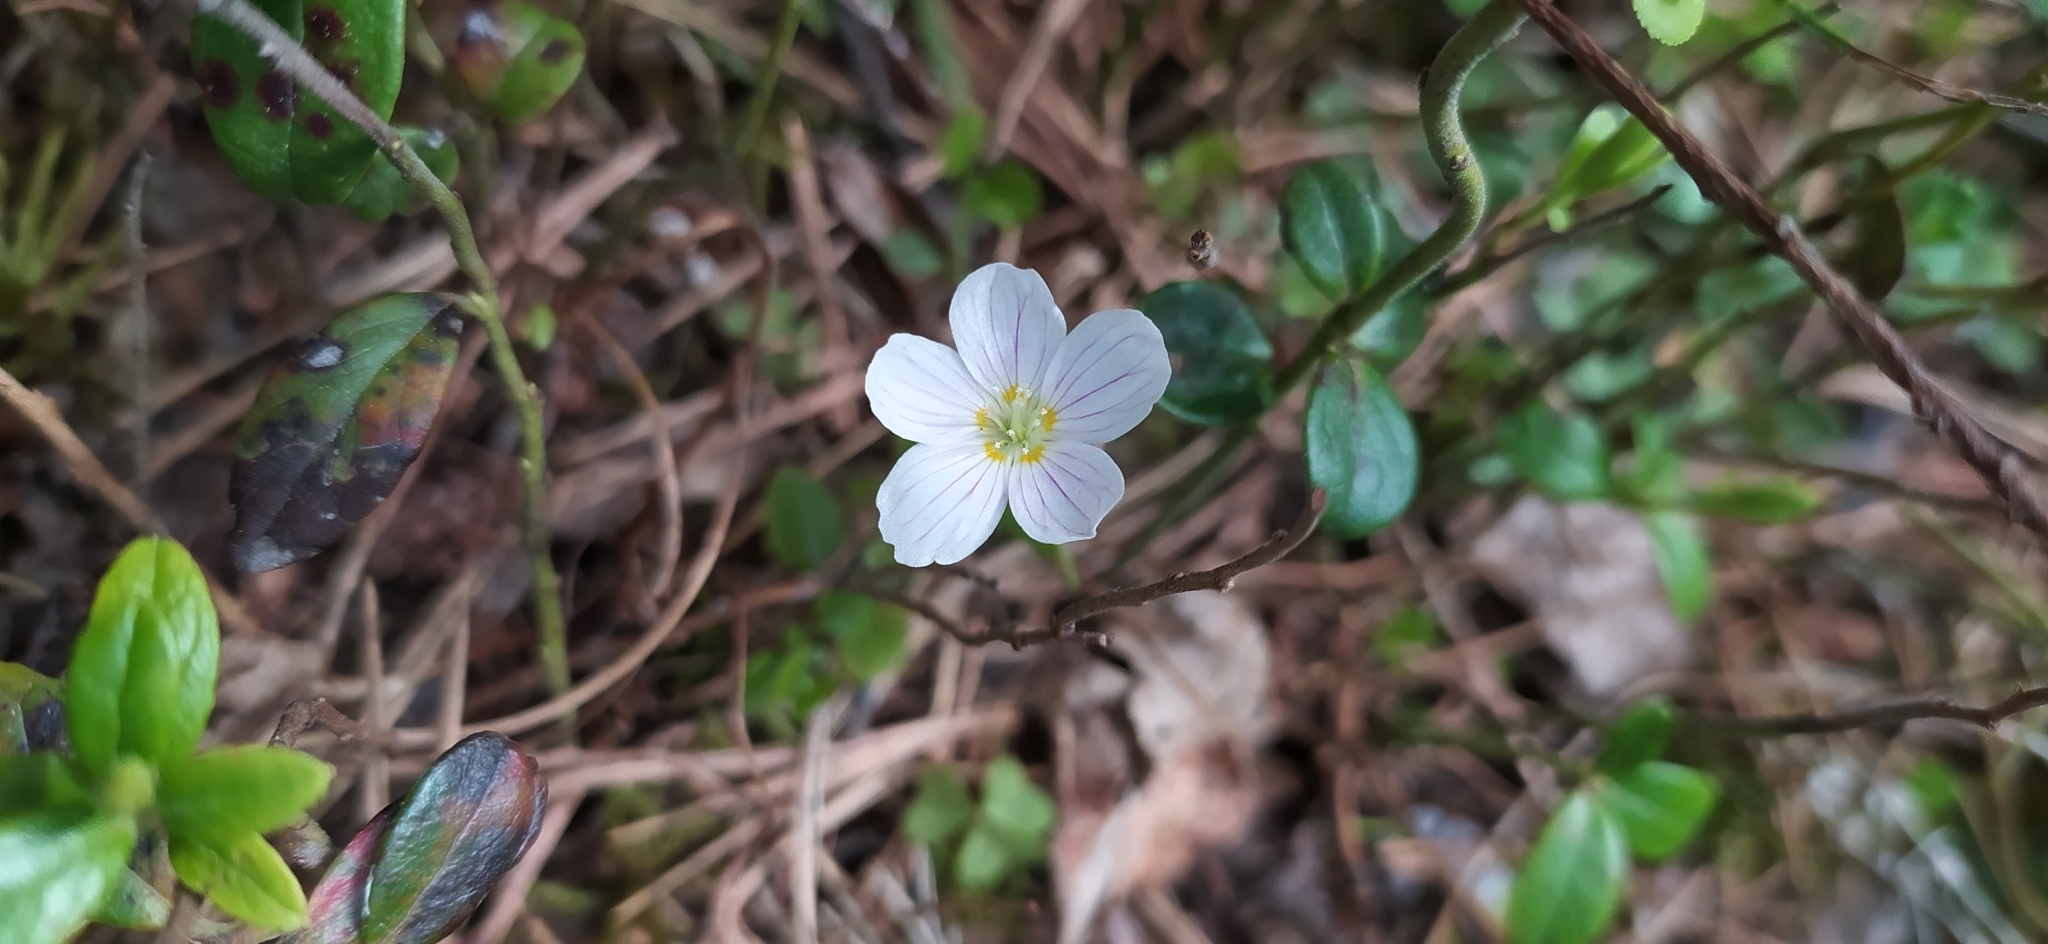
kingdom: Plantae
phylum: Tracheophyta
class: Magnoliopsida
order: Oxalidales
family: Oxalidaceae
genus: Oxalis
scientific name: Oxalis acetosella
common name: Wood-sorrel
